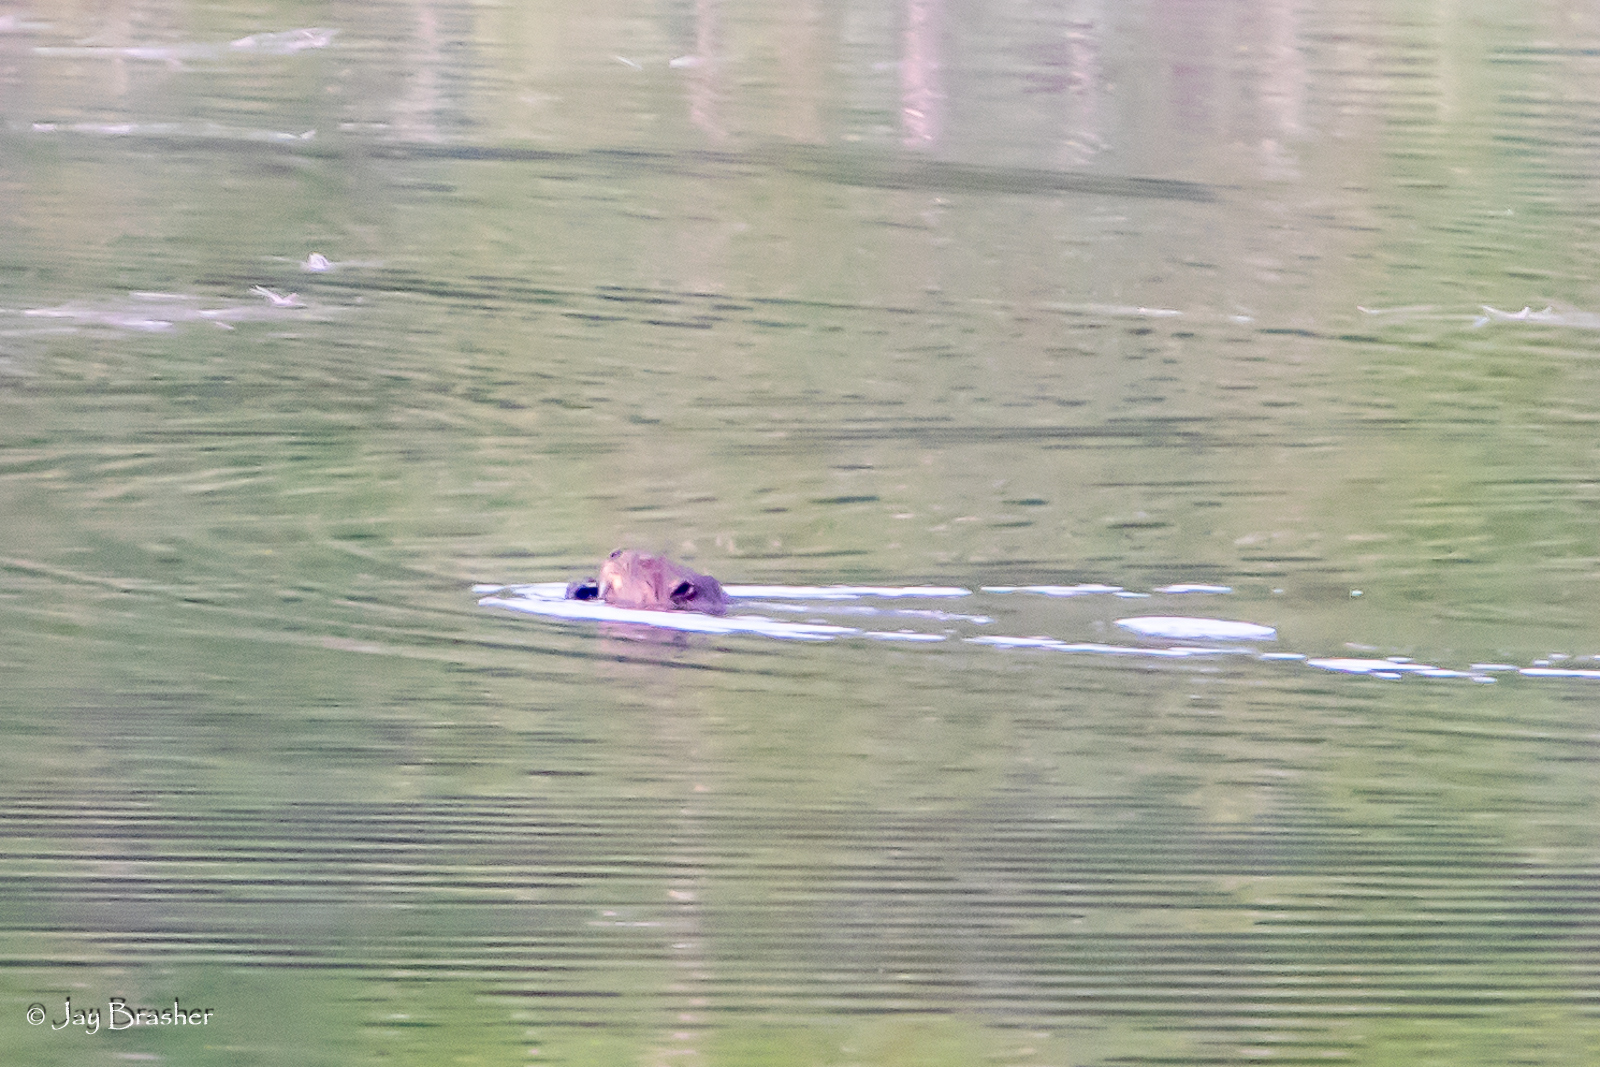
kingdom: Animalia
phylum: Chordata
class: Mammalia
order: Rodentia
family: Castoridae
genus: Castor
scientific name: Castor canadensis
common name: American beaver
